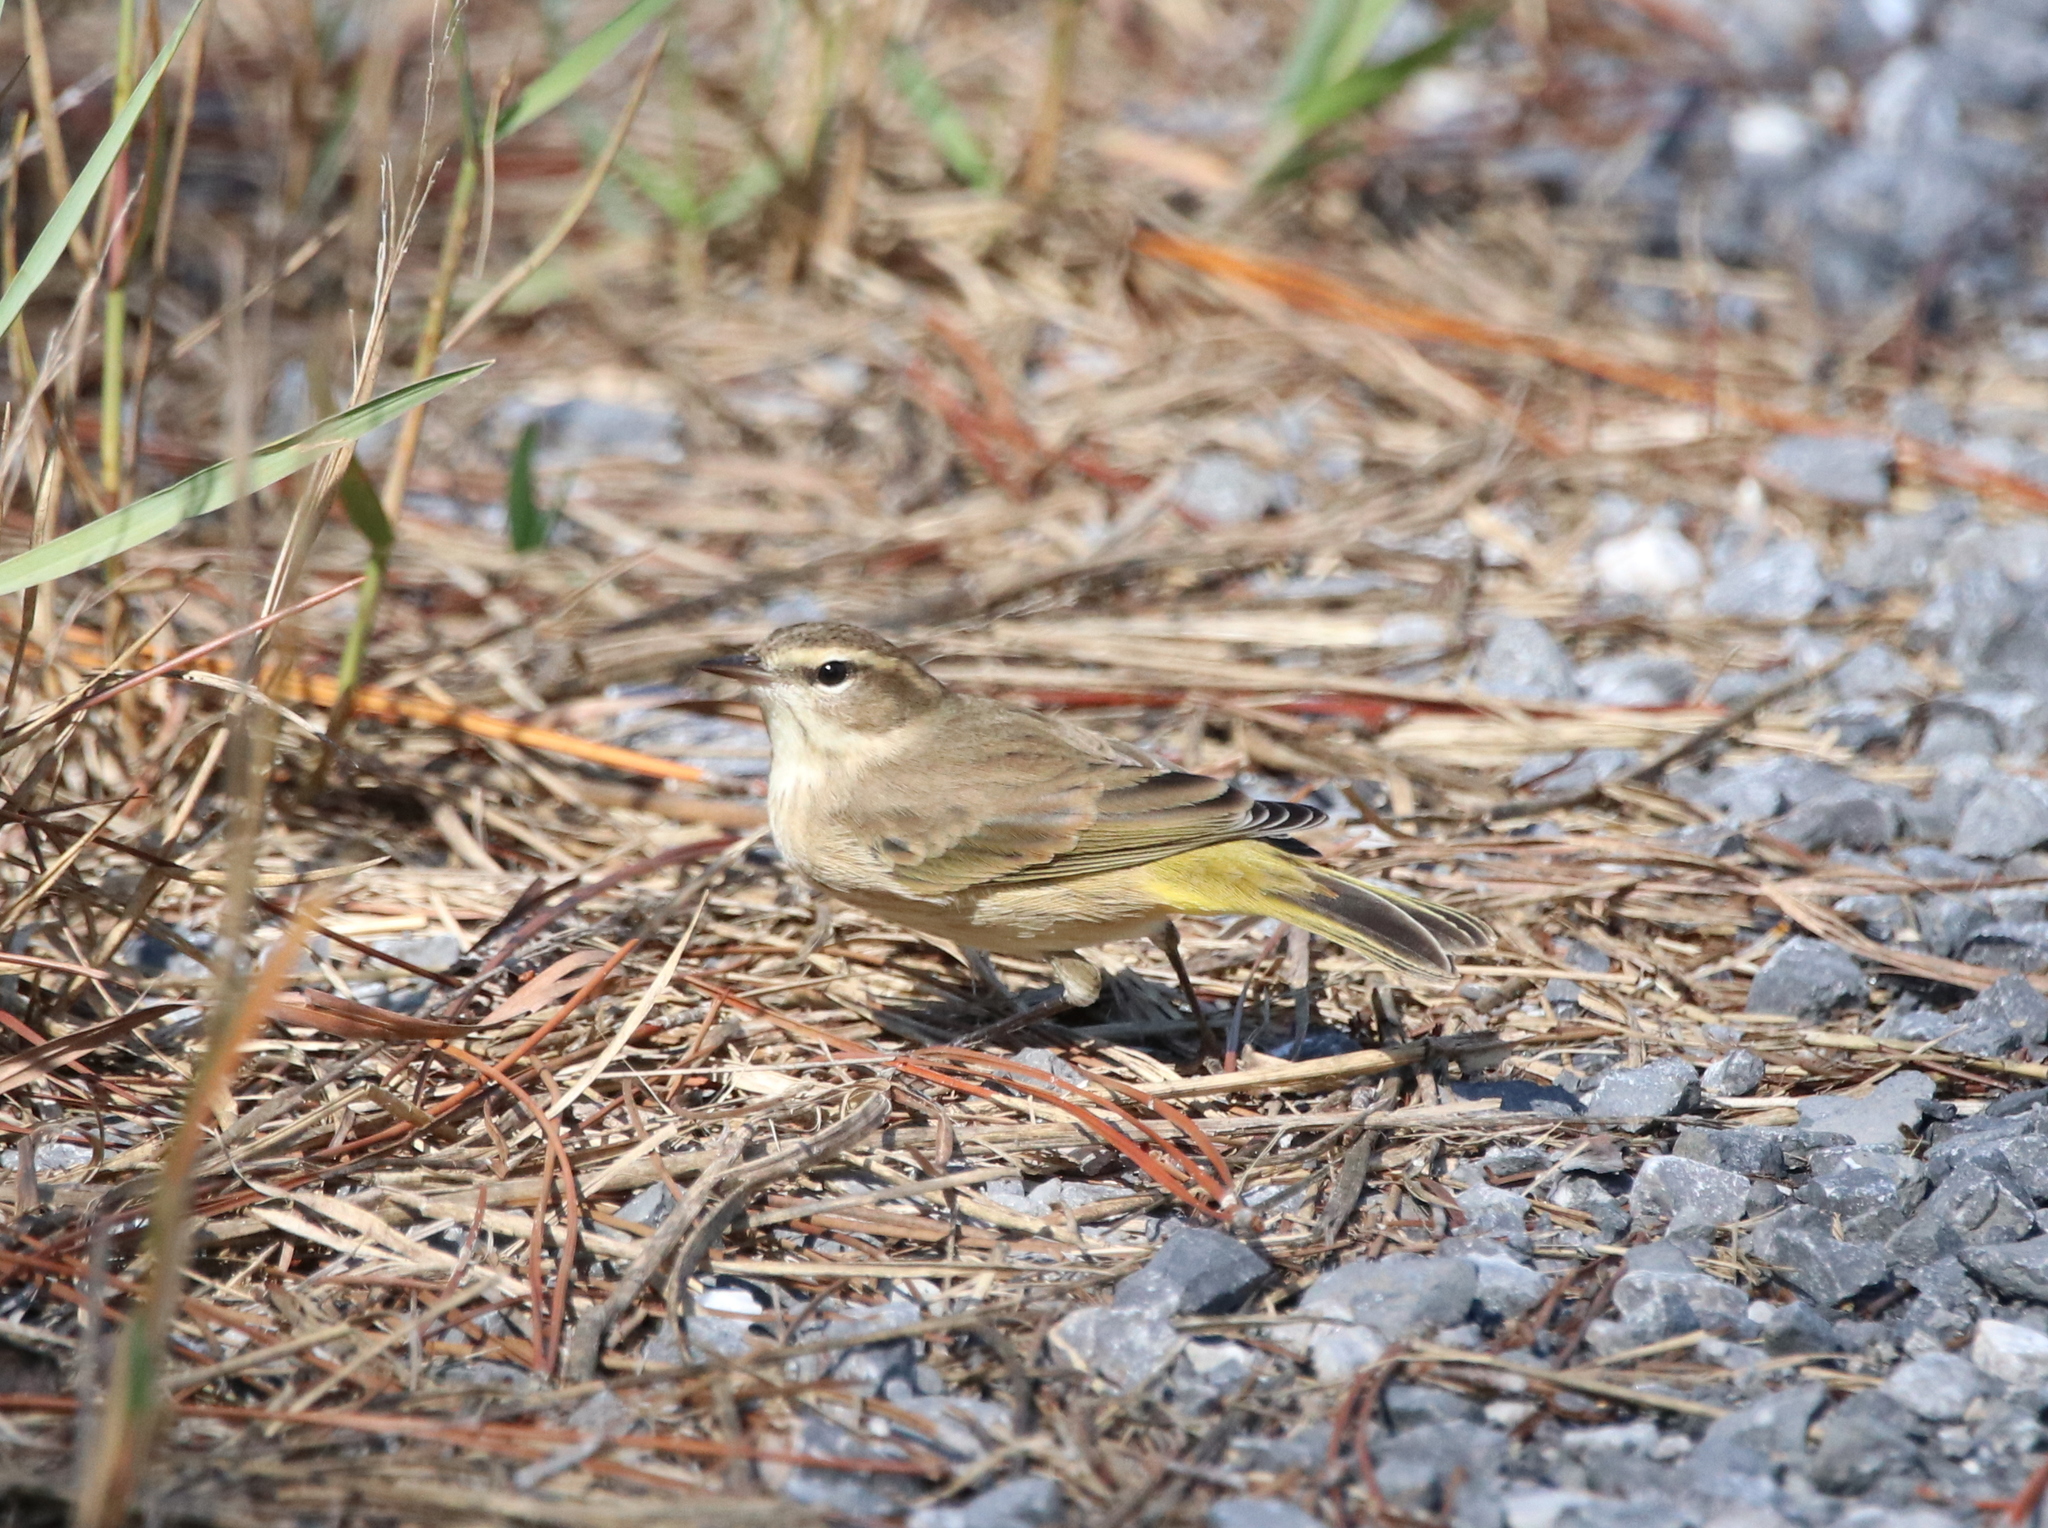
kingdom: Animalia
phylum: Chordata
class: Aves
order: Passeriformes
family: Parulidae
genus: Setophaga
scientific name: Setophaga palmarum
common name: Palm warbler
